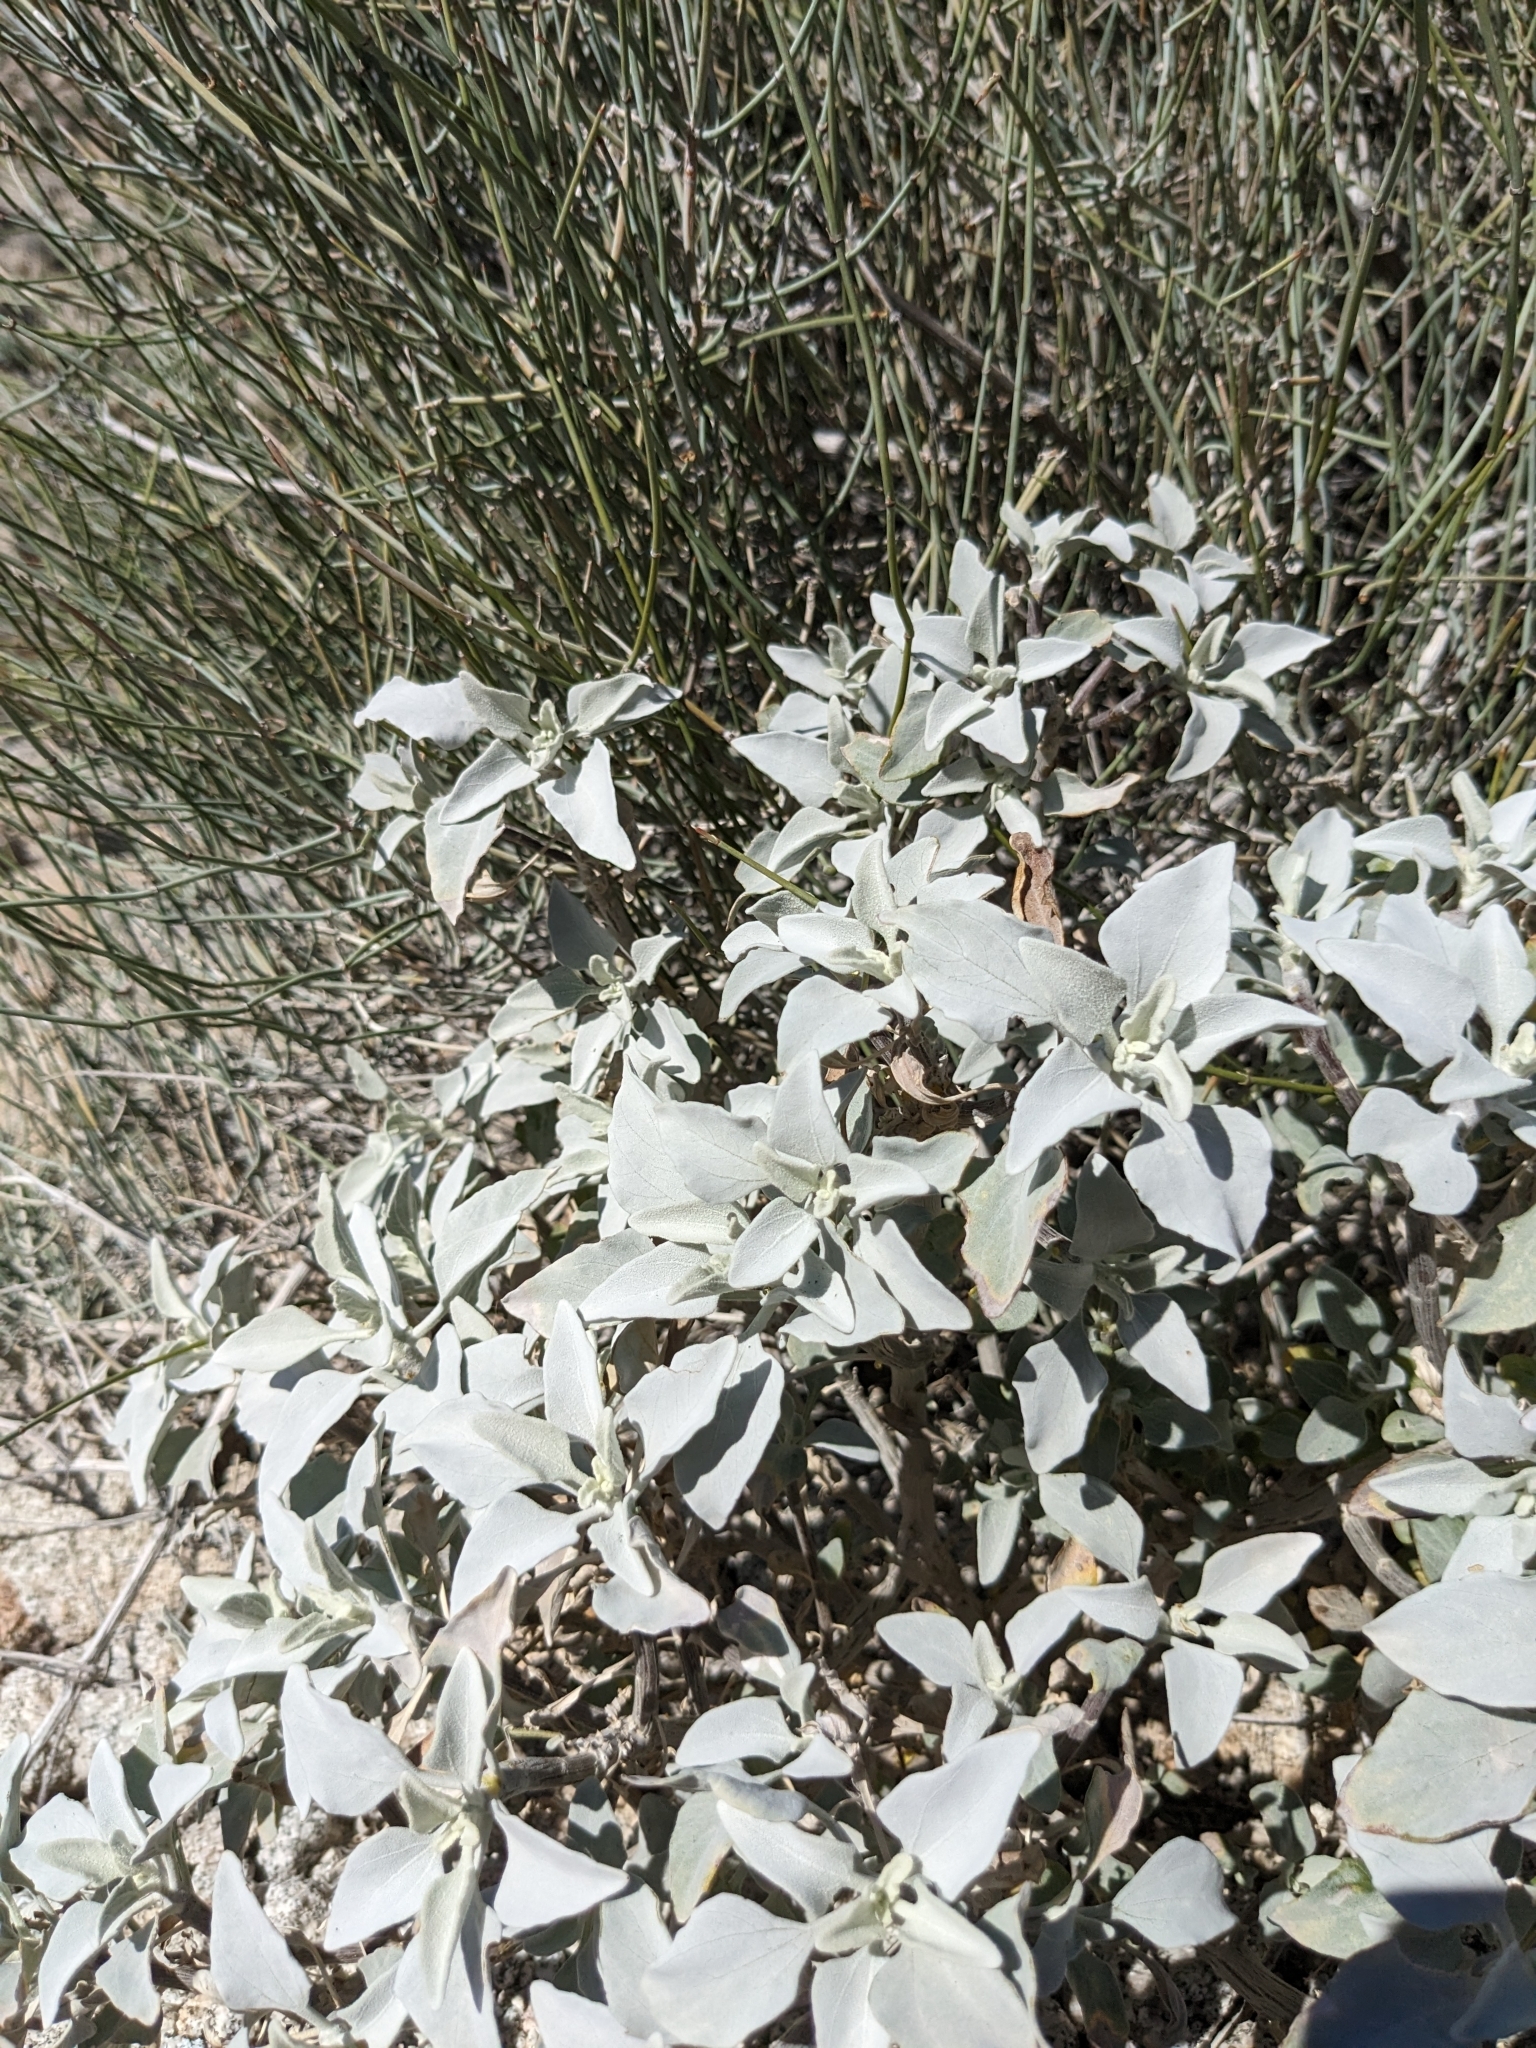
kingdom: Plantae
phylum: Tracheophyta
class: Magnoliopsida
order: Asterales
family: Asteraceae
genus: Encelia
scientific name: Encelia farinosa
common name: Brittlebush
